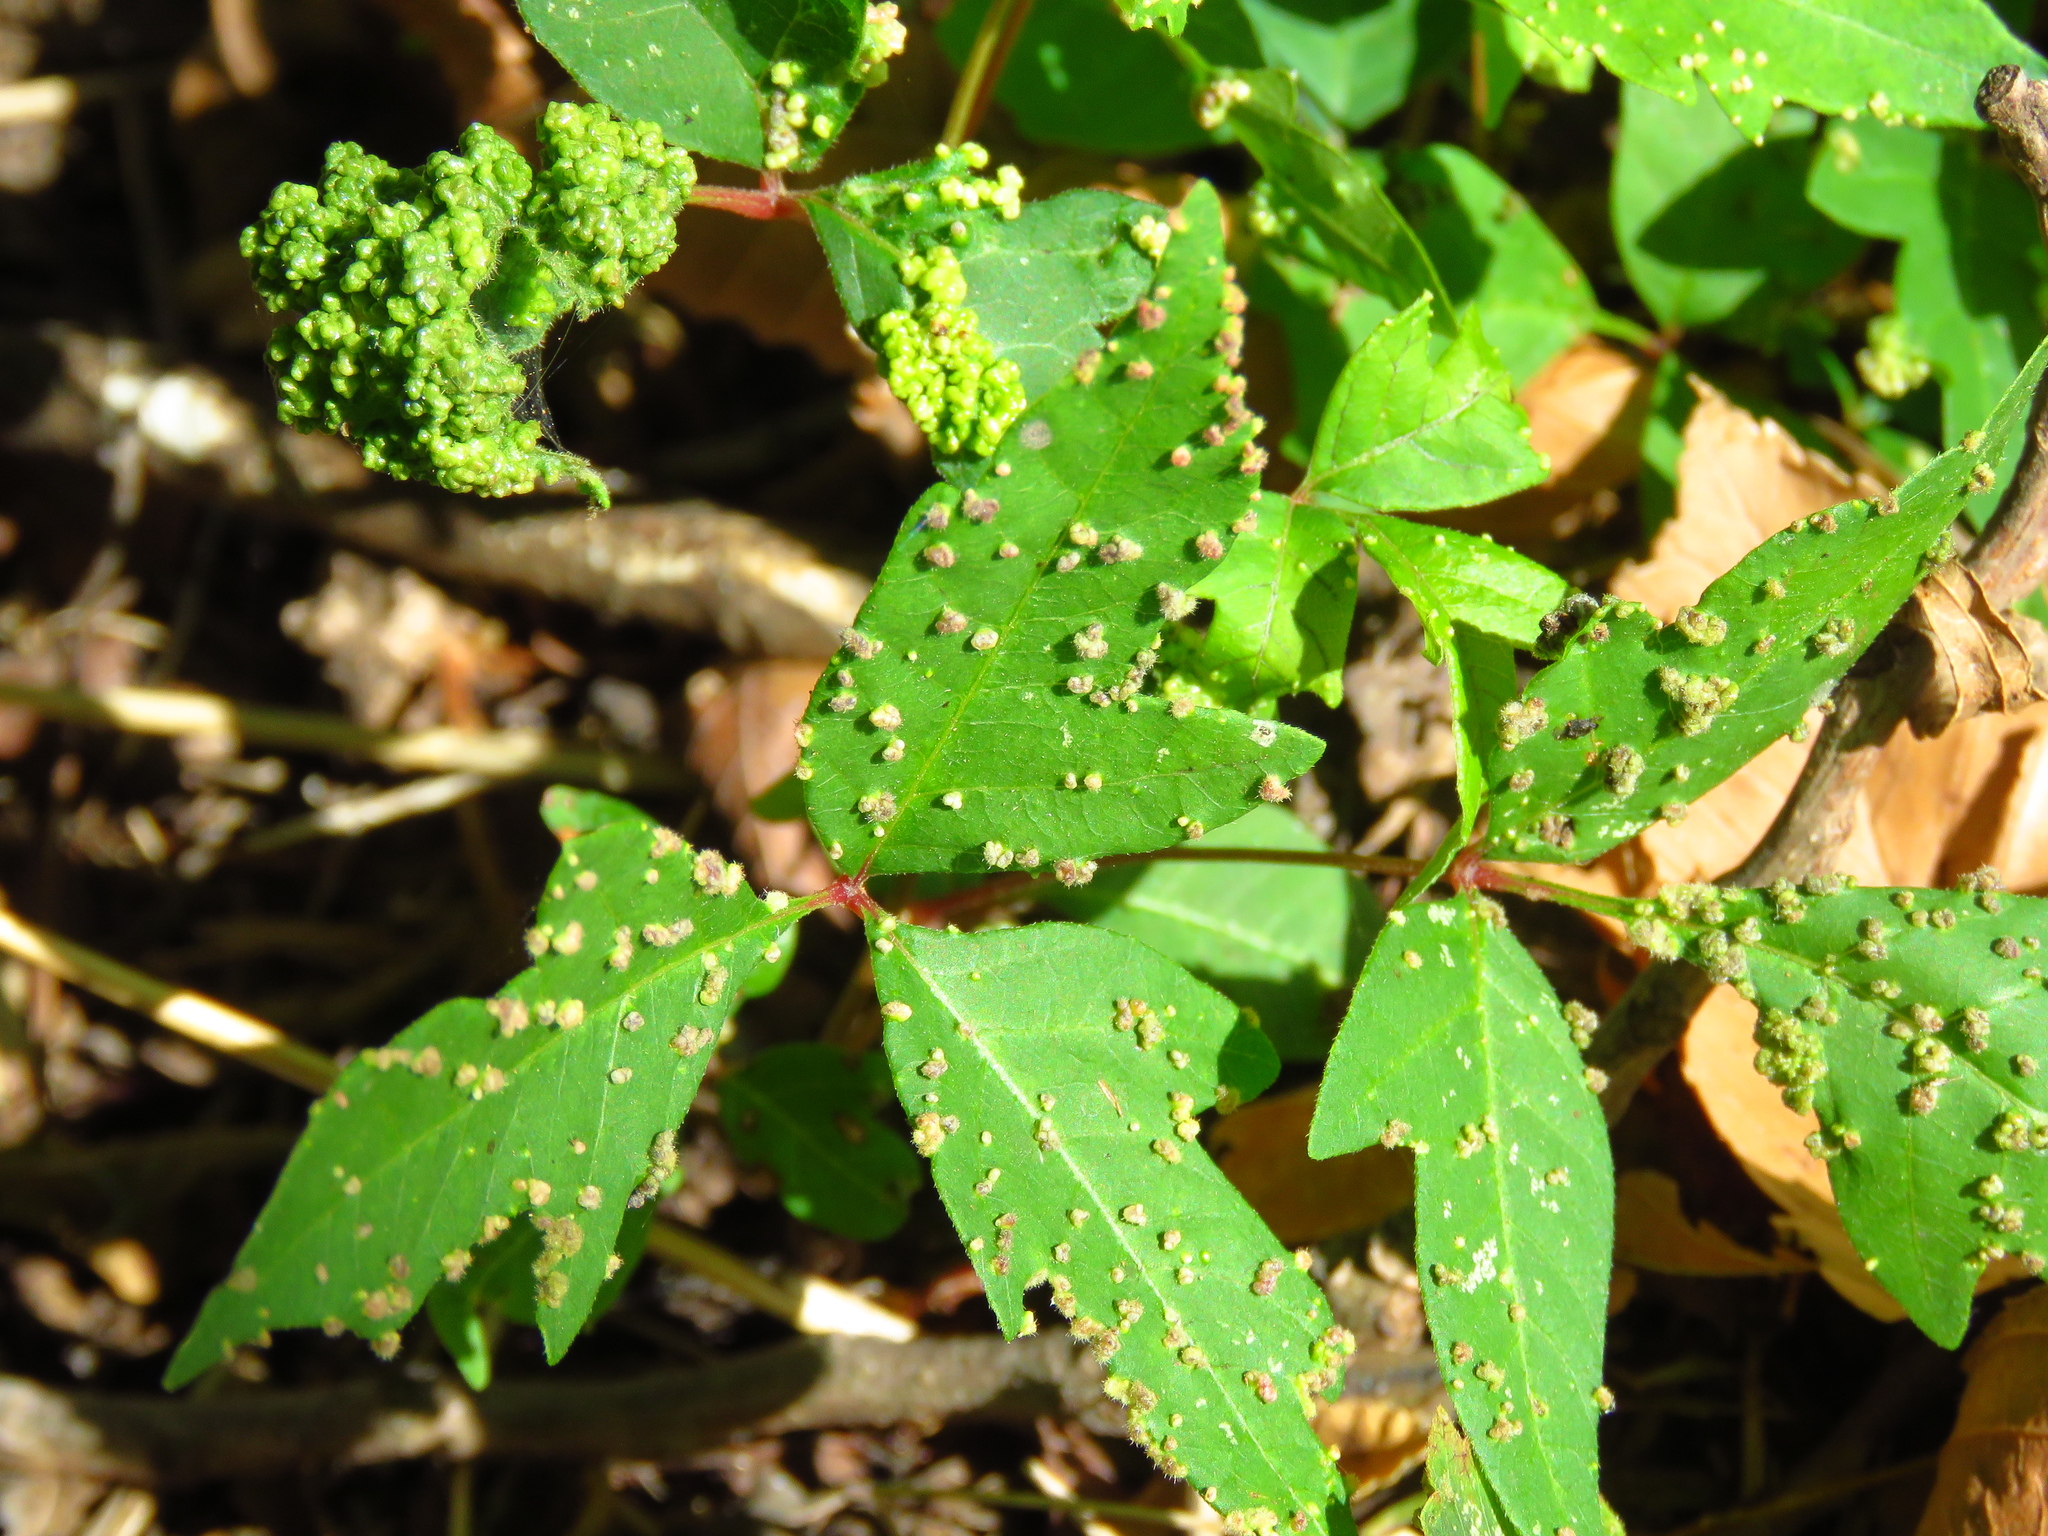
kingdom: Animalia
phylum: Arthropoda
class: Arachnida
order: Trombidiformes
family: Eriophyidae
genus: Aculops
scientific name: Aculops
